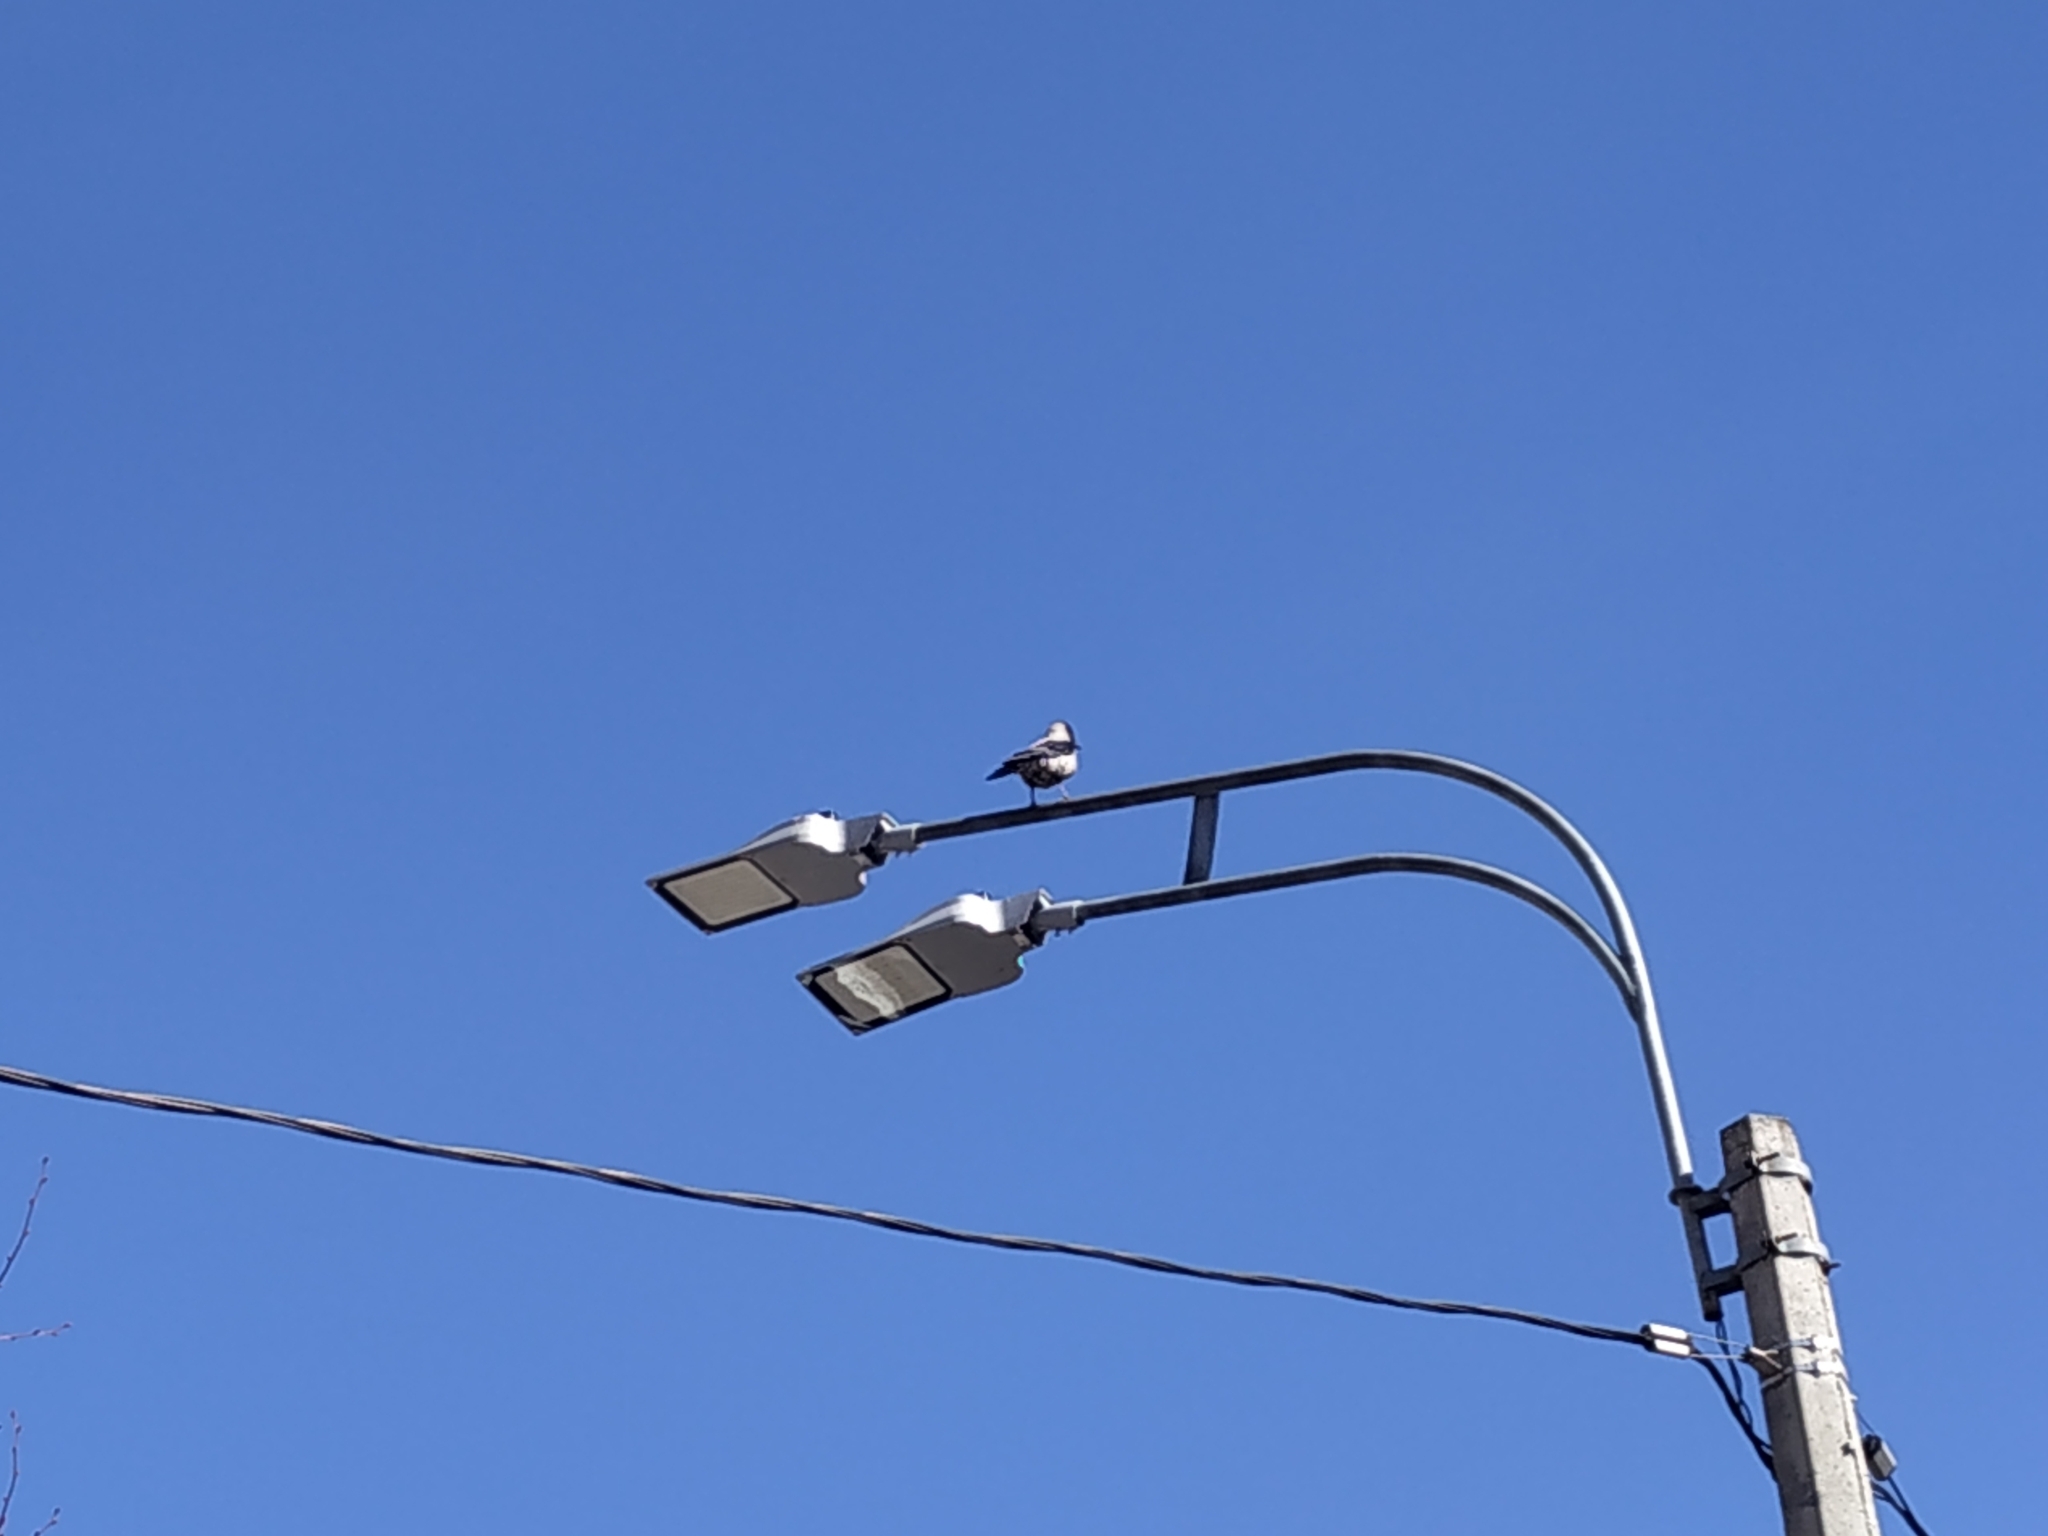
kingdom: Animalia
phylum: Chordata
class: Aves
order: Passeriformes
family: Corvidae
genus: Corvus
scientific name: Corvus cornix
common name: Hooded crow
